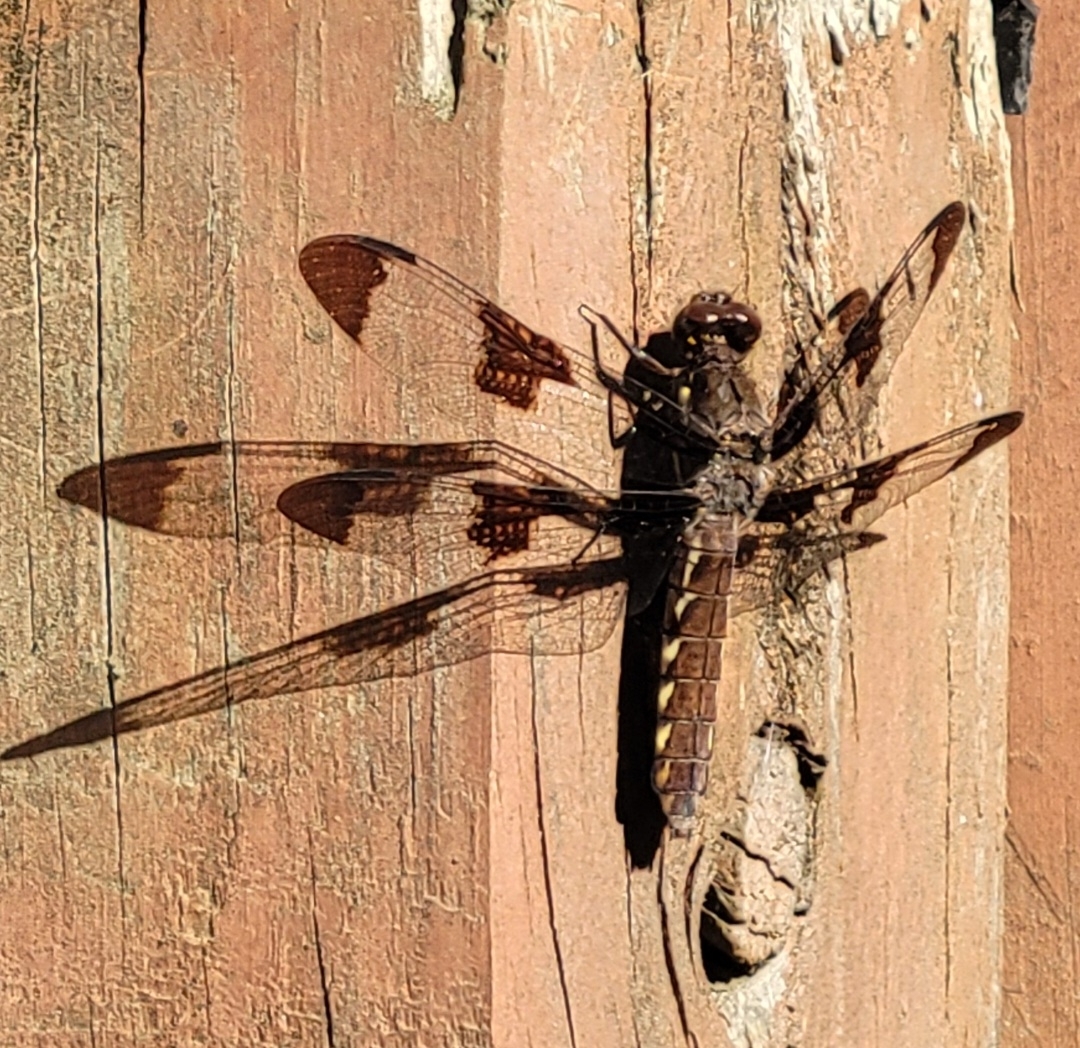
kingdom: Animalia
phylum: Arthropoda
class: Insecta
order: Odonata
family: Libellulidae
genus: Plathemis
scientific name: Plathemis lydia
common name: Common whitetail
